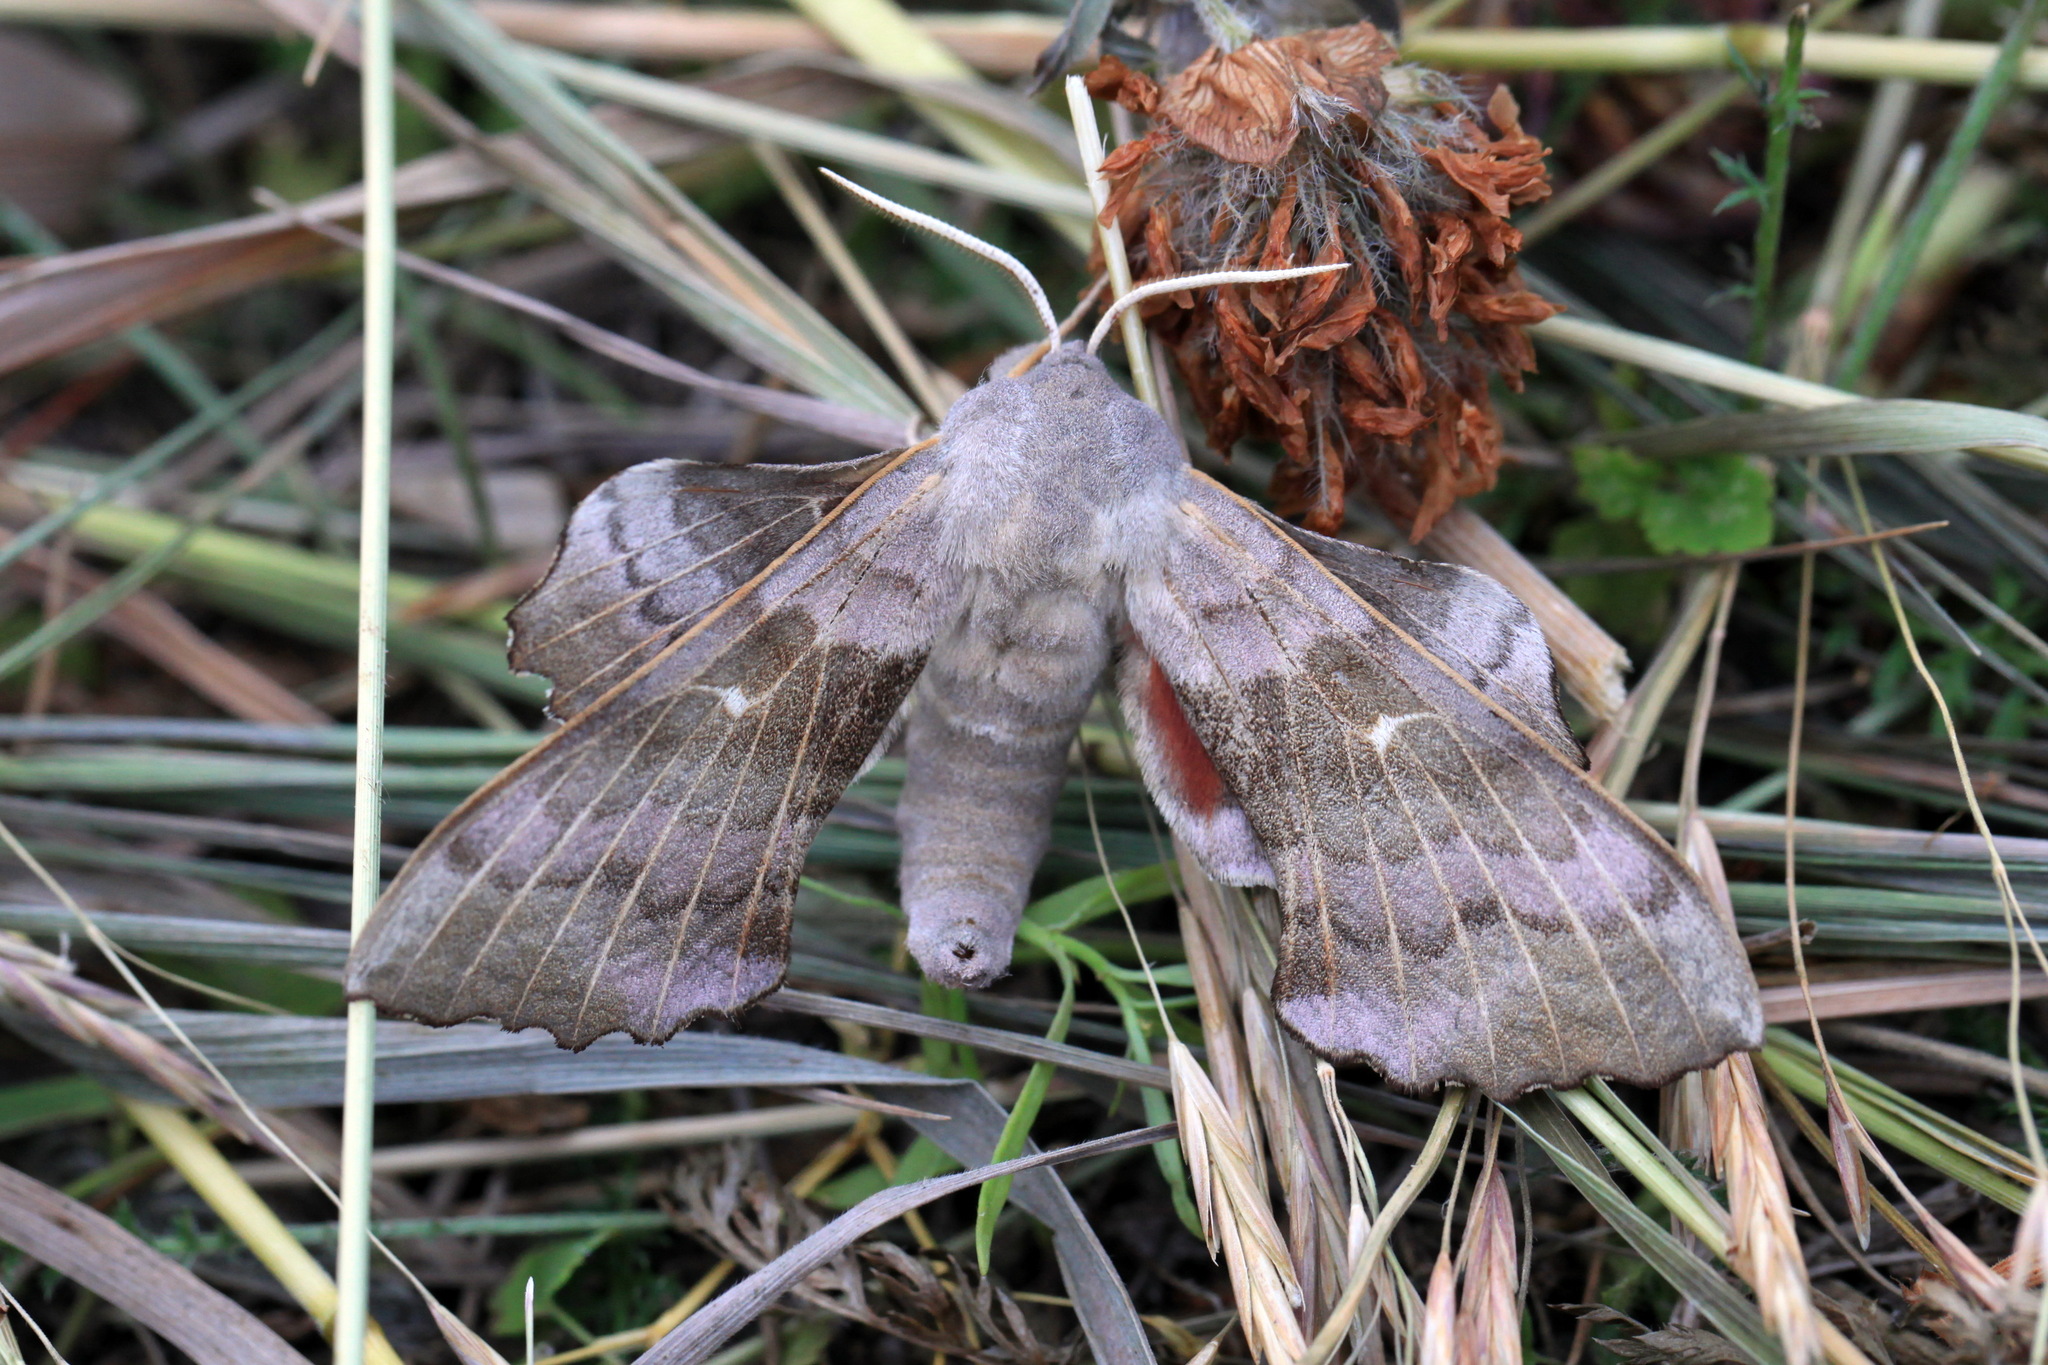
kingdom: Animalia
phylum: Arthropoda
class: Insecta
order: Lepidoptera
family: Sphingidae
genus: Laothoe
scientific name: Laothoe populi
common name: Poplar hawk-moth
